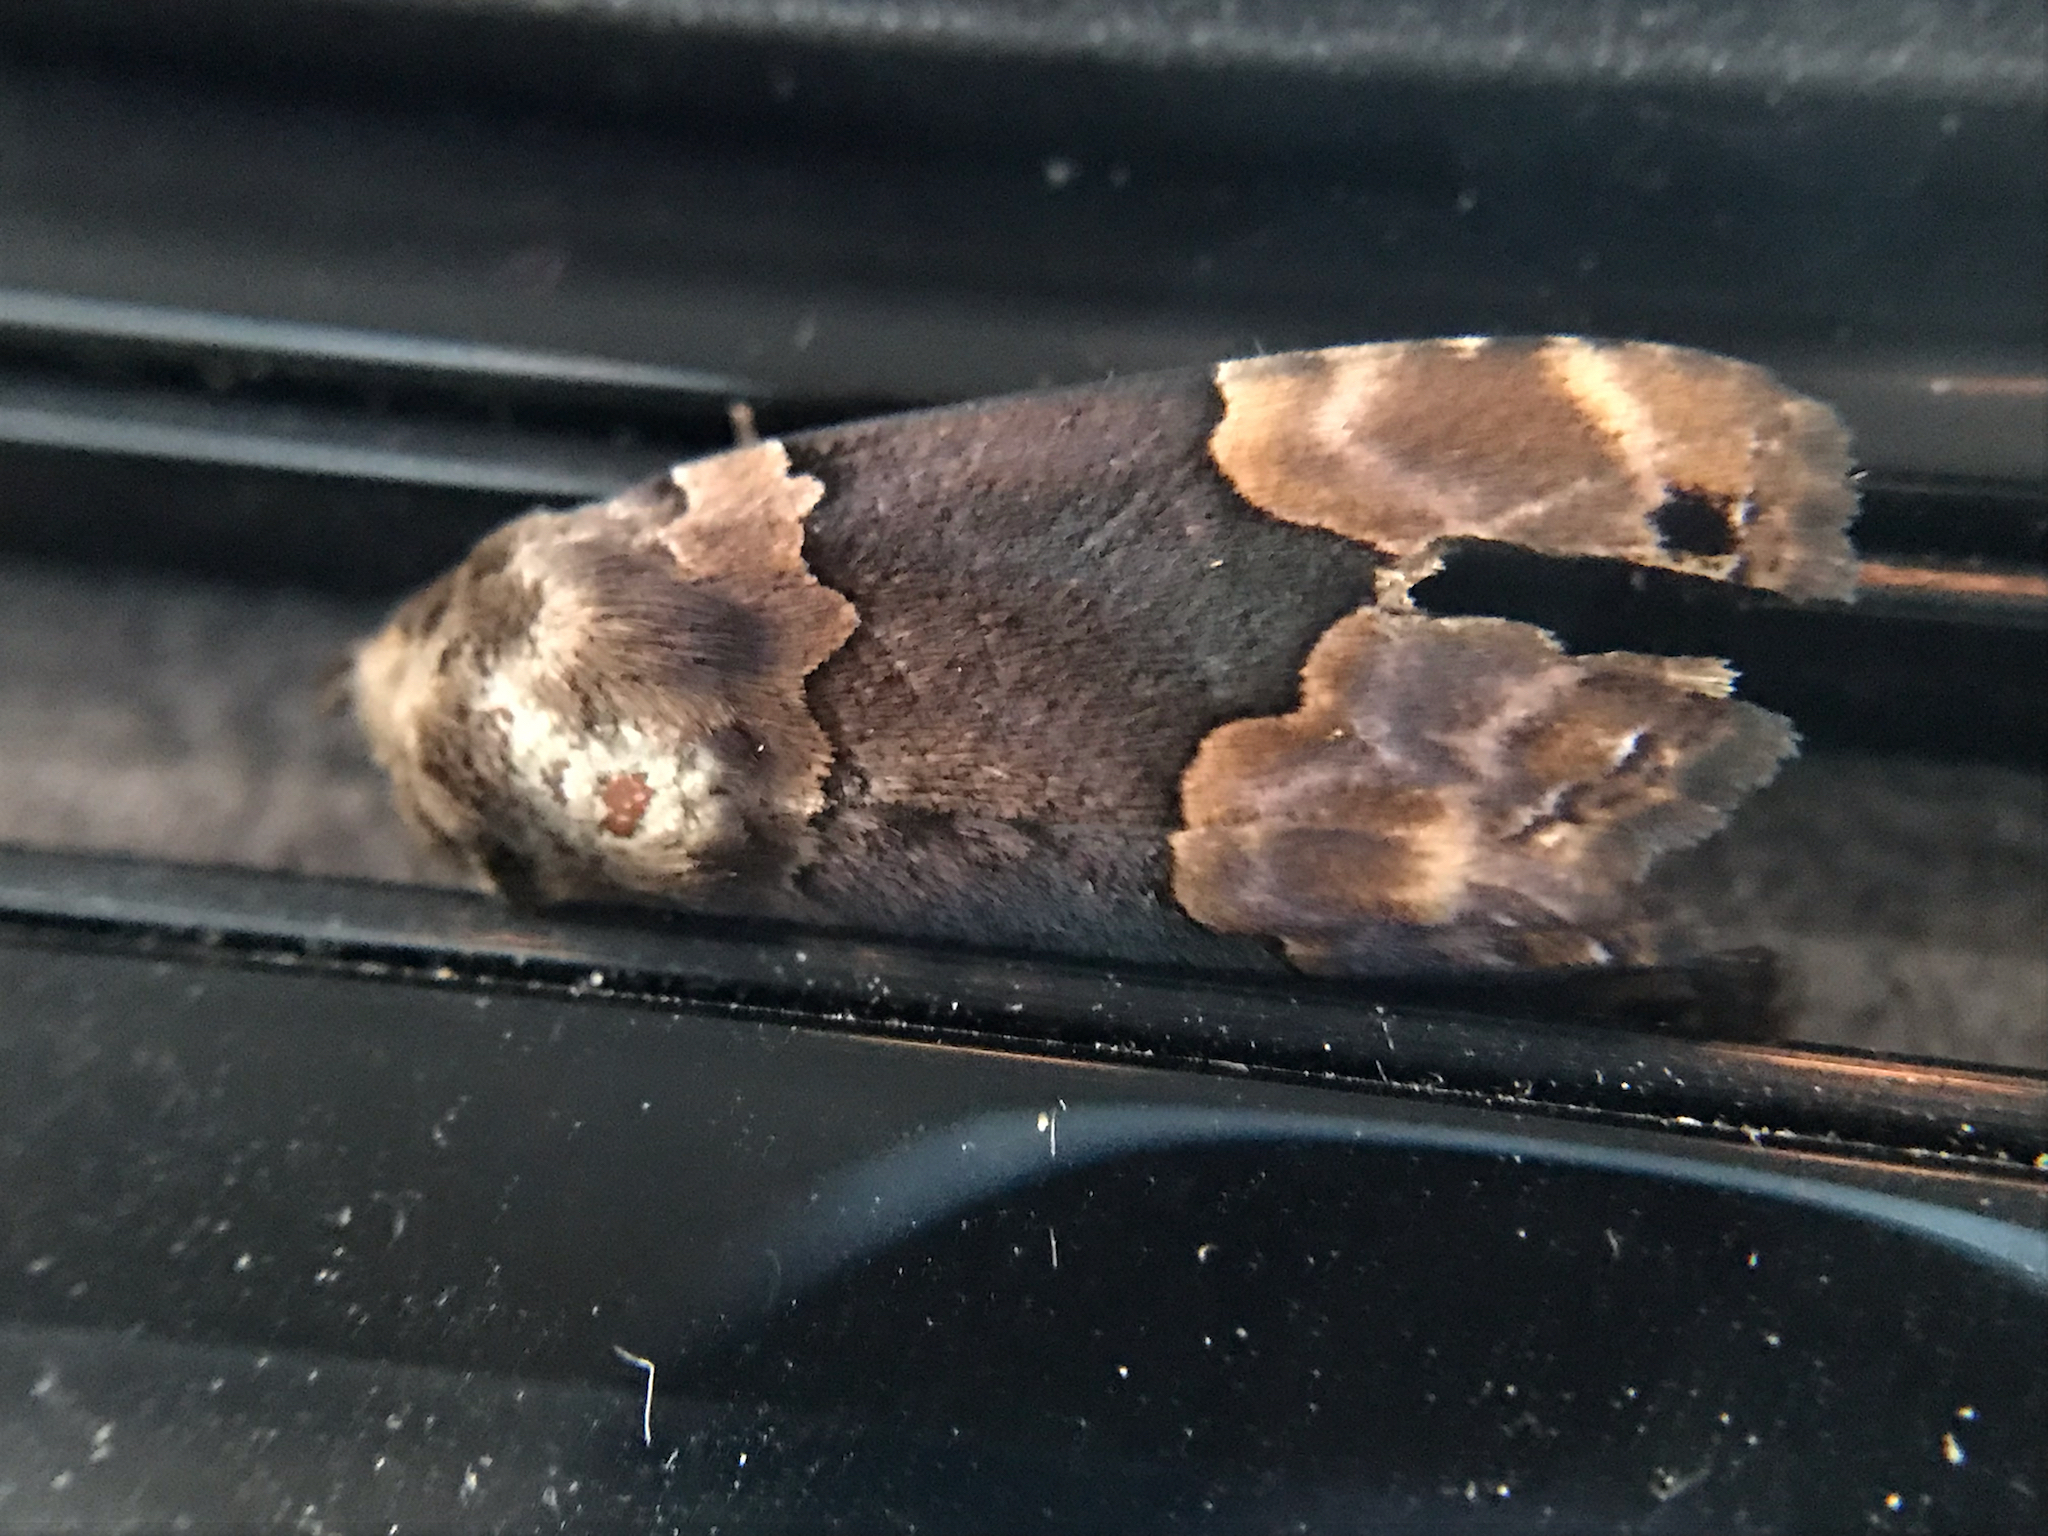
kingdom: Animalia
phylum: Arthropoda
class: Insecta
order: Lepidoptera
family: Erebidae
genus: Dinumma
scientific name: Dinumma deponens
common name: Purplish moth
